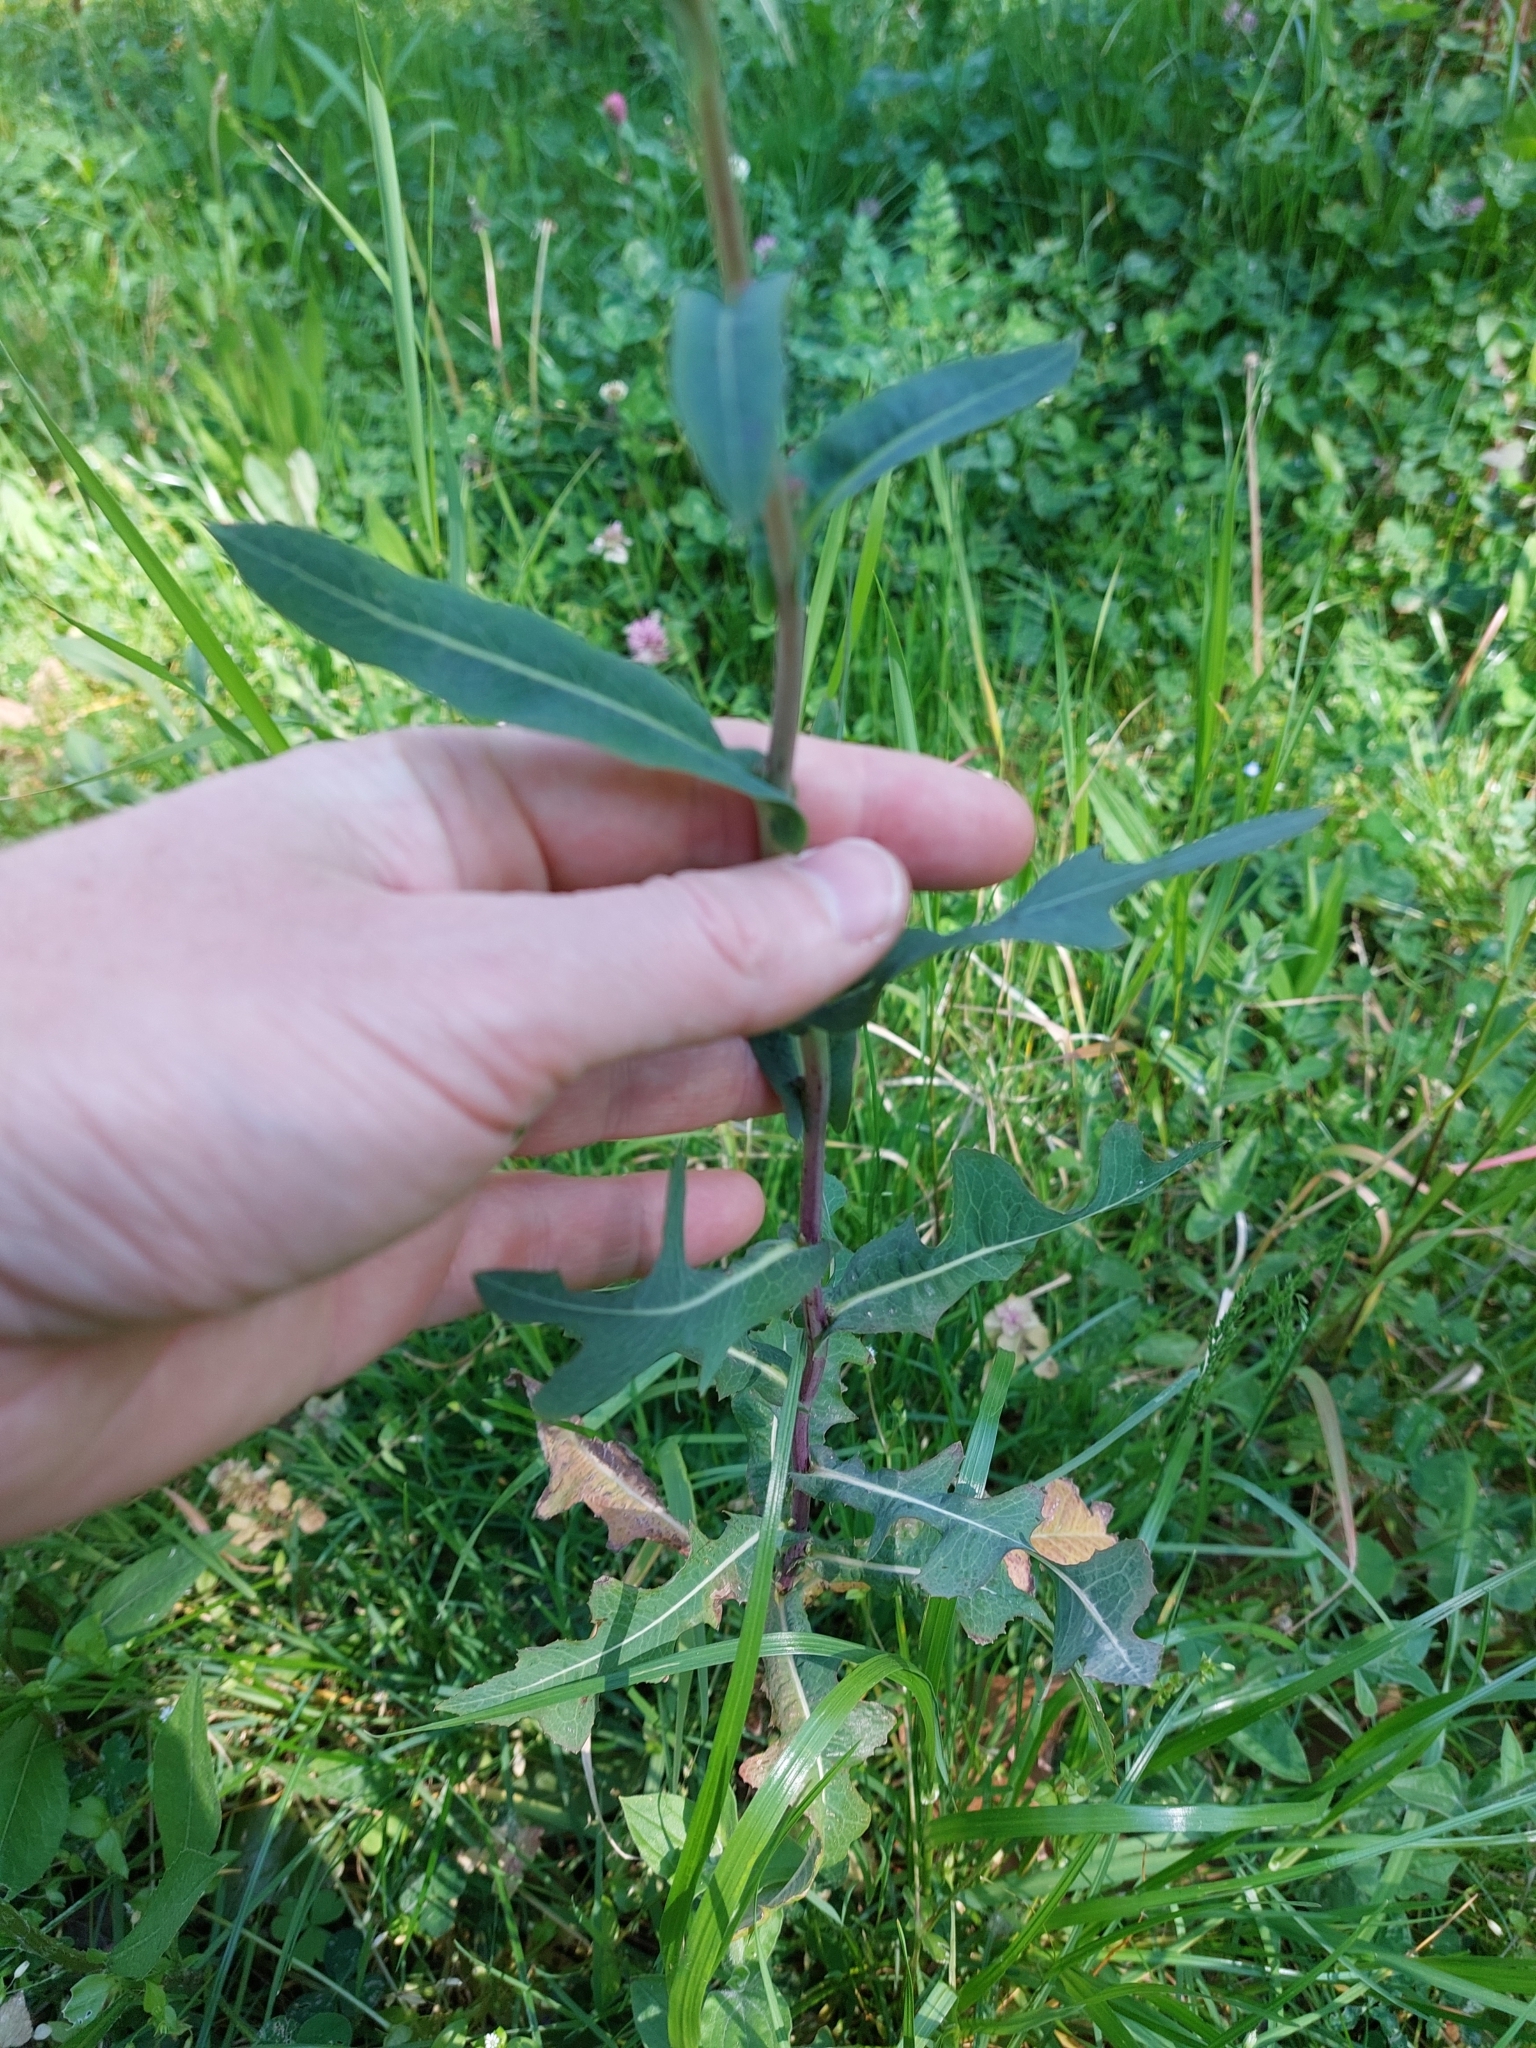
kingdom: Plantae
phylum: Tracheophyta
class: Magnoliopsida
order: Asterales
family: Asteraceae
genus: Lactuca
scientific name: Lactuca serriola
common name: Prickly lettuce
